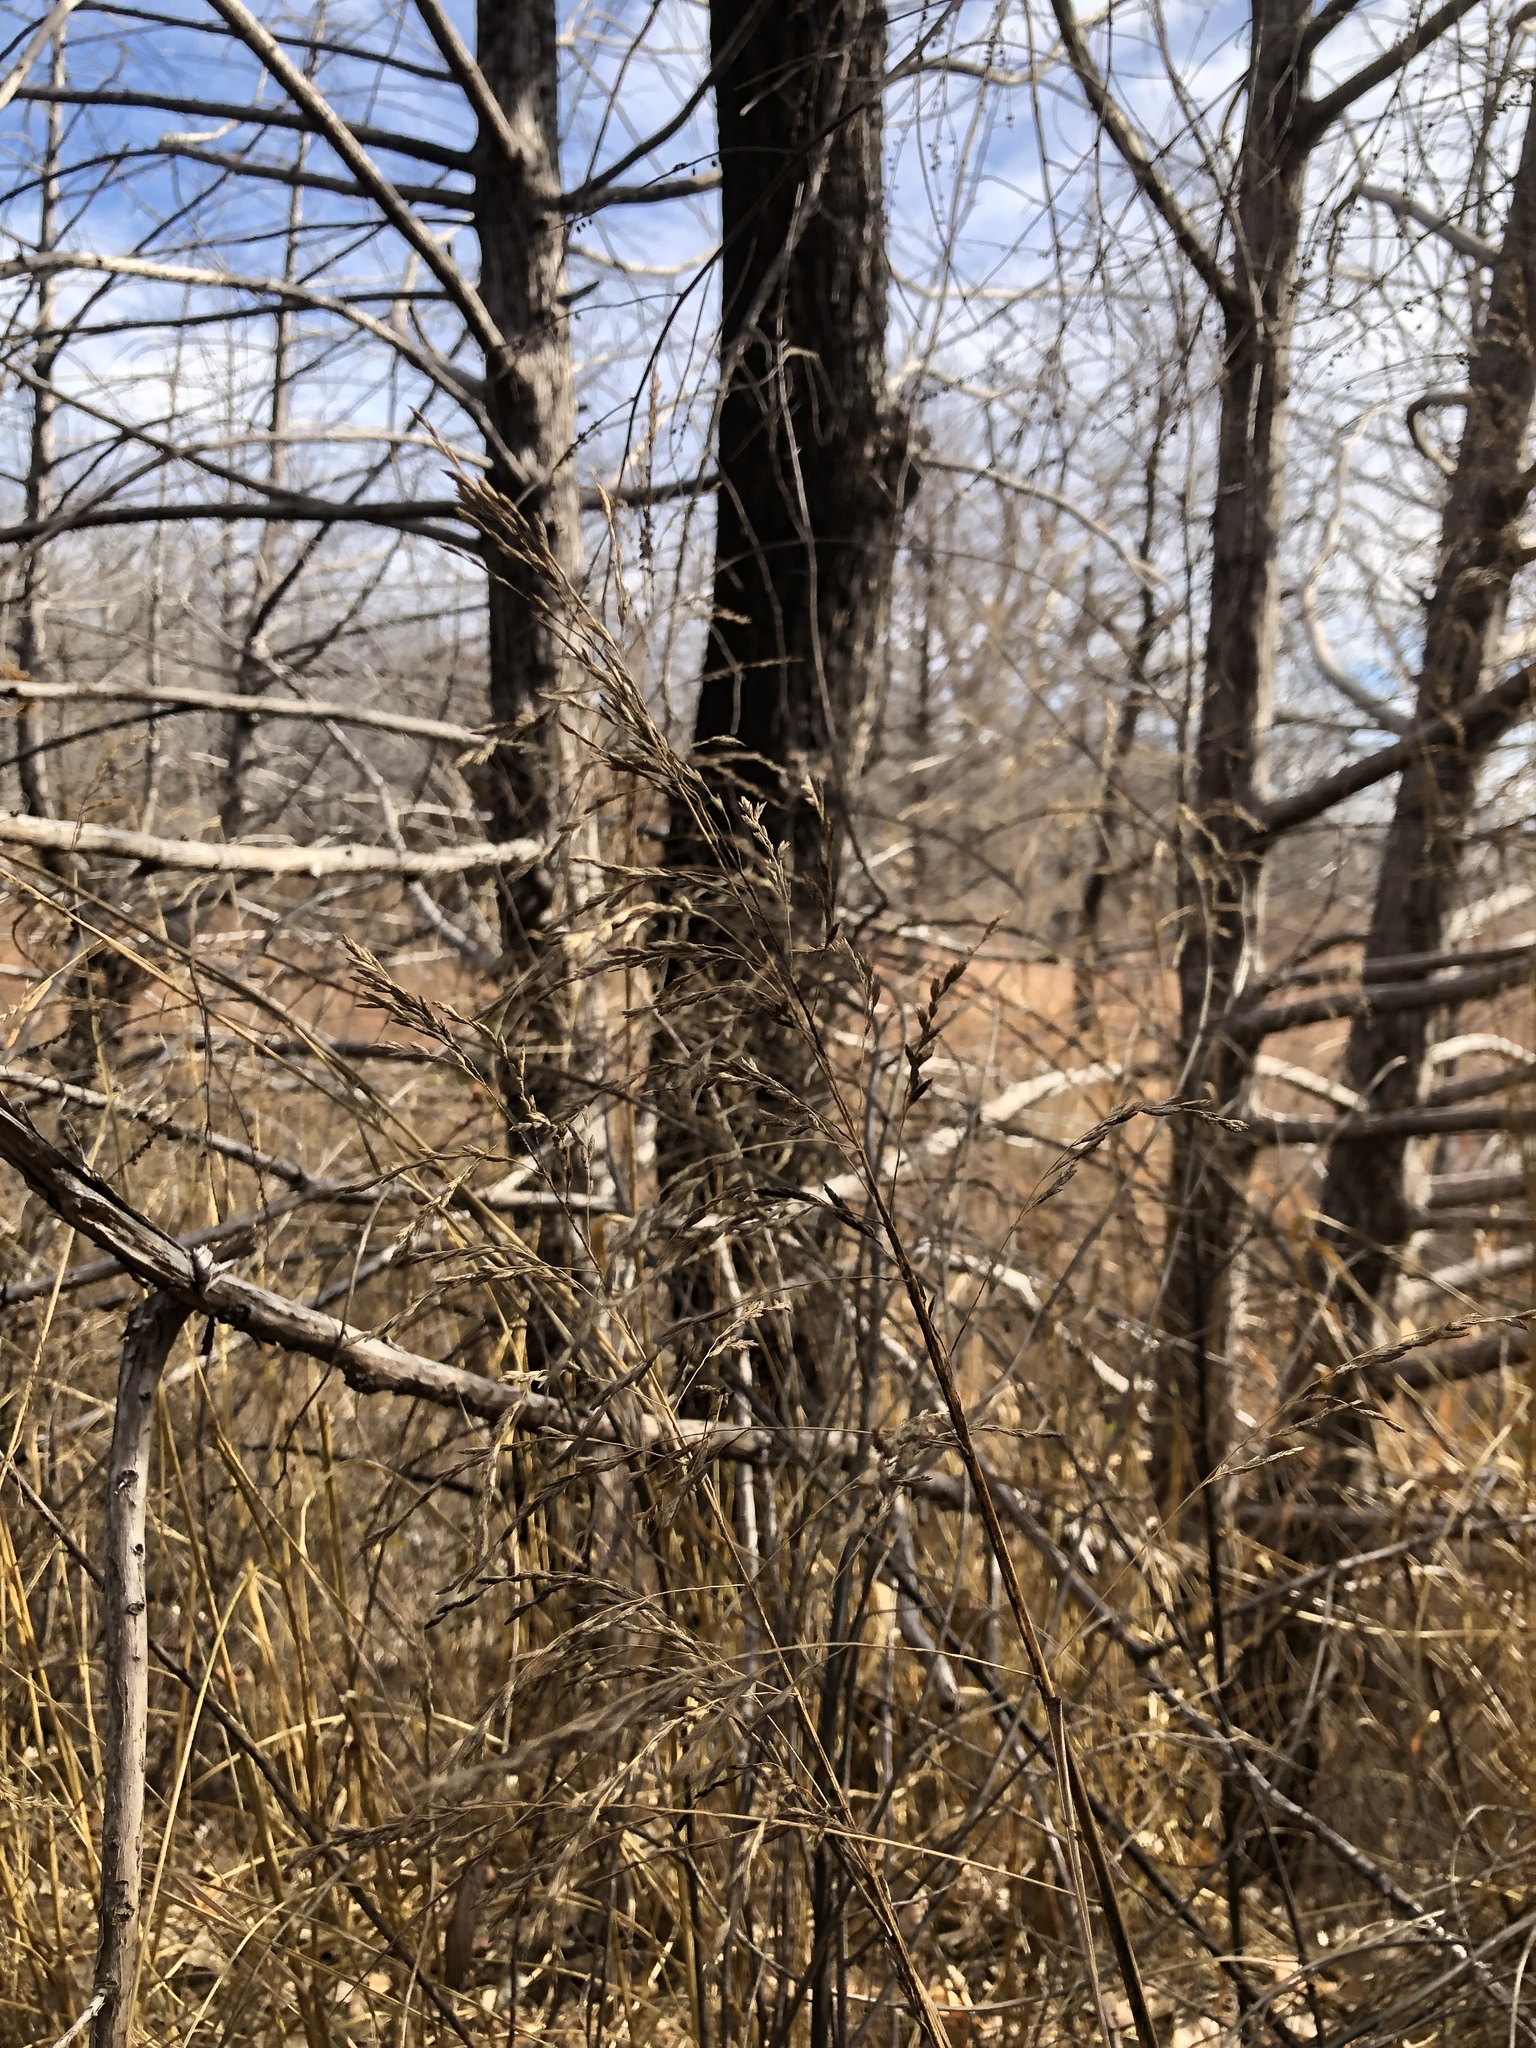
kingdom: Plantae
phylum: Tracheophyta
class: Liliopsida
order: Poales
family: Poaceae
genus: Tridens
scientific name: Tridens flavus
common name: Purpletop
